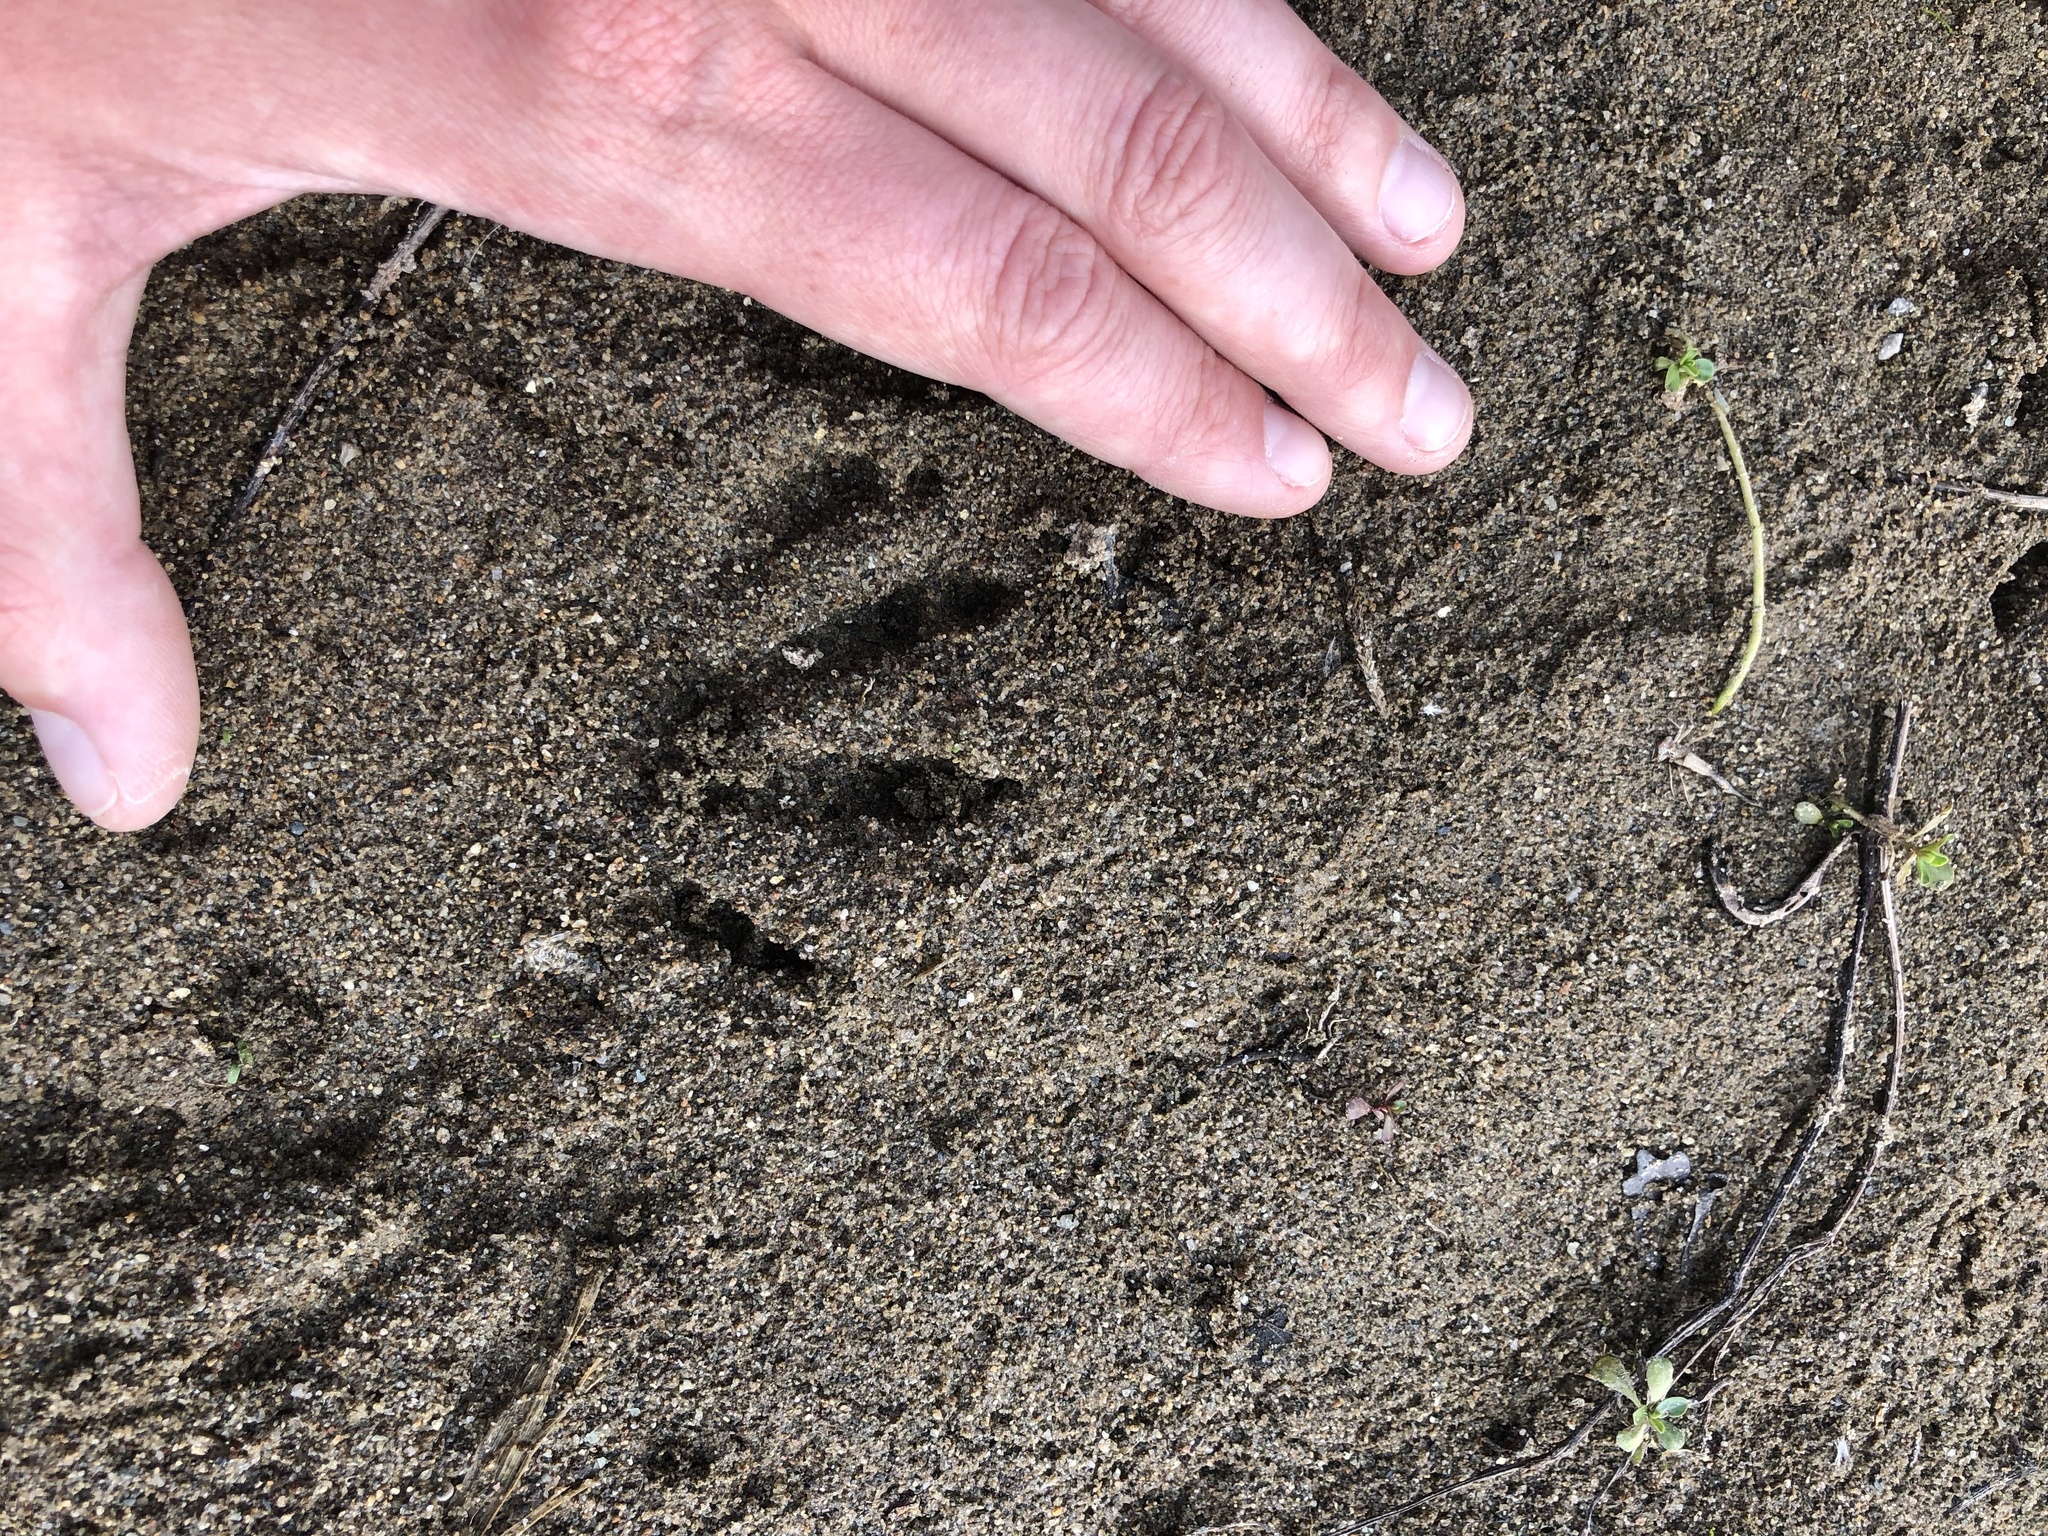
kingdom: Animalia
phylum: Chordata
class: Mammalia
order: Carnivora
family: Procyonidae
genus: Procyon
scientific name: Procyon lotor
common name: Raccoon
